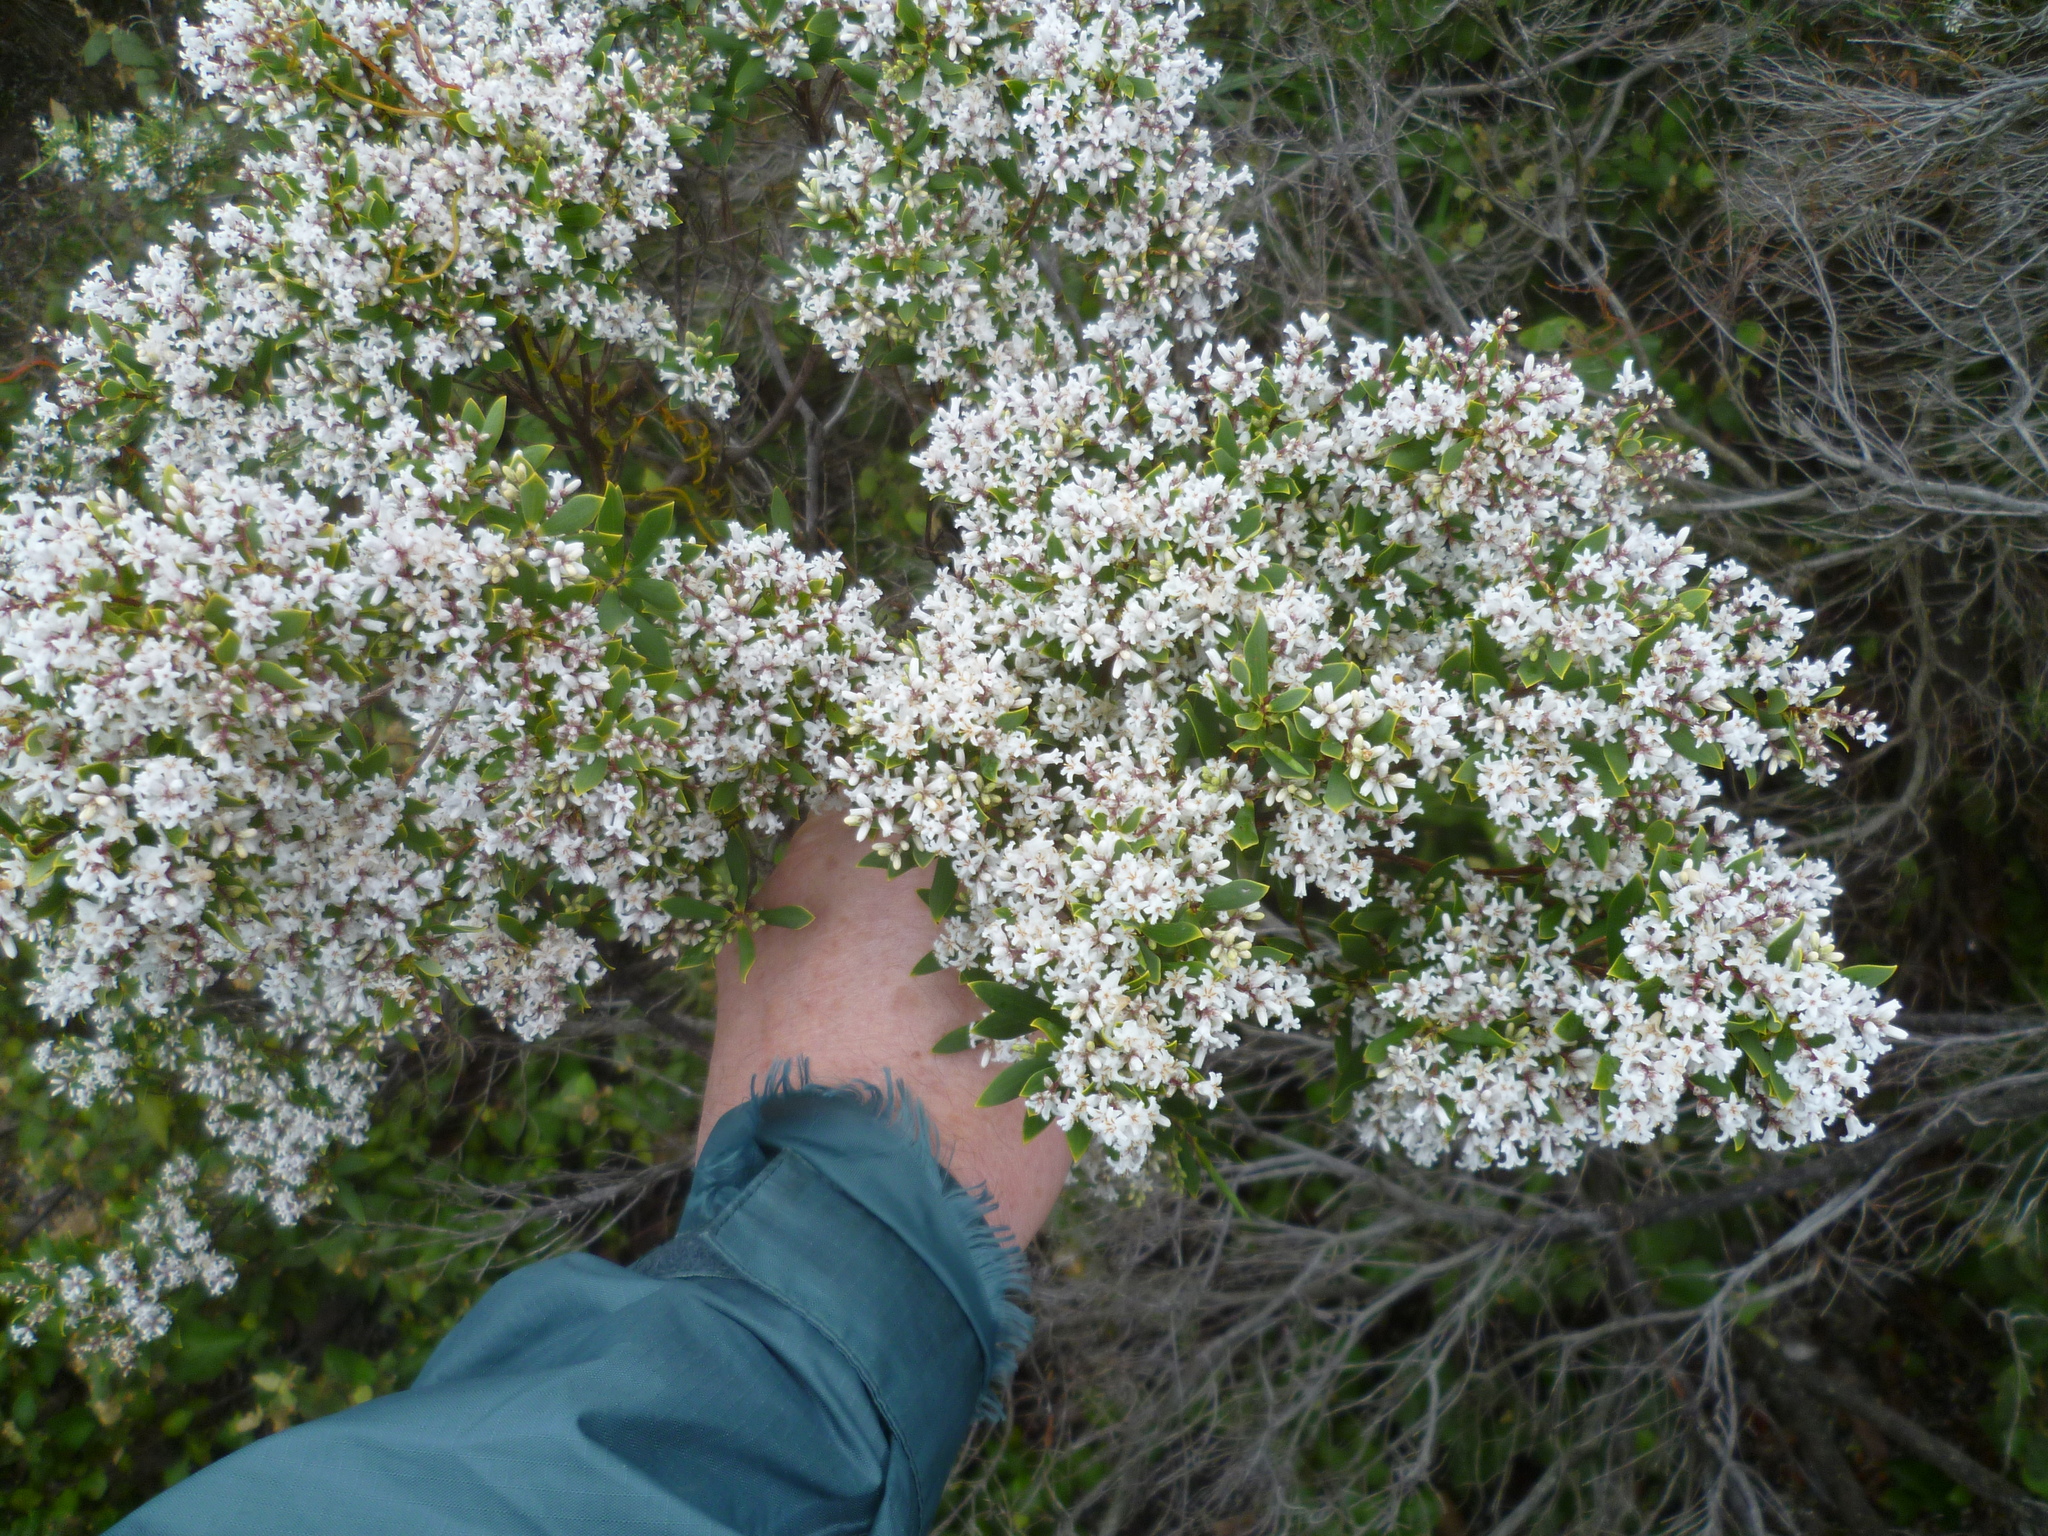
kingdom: Plantae
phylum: Tracheophyta
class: Magnoliopsida
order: Ericales
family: Ericaceae
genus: Leptecophylla
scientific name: Leptecophylla parvifolia
